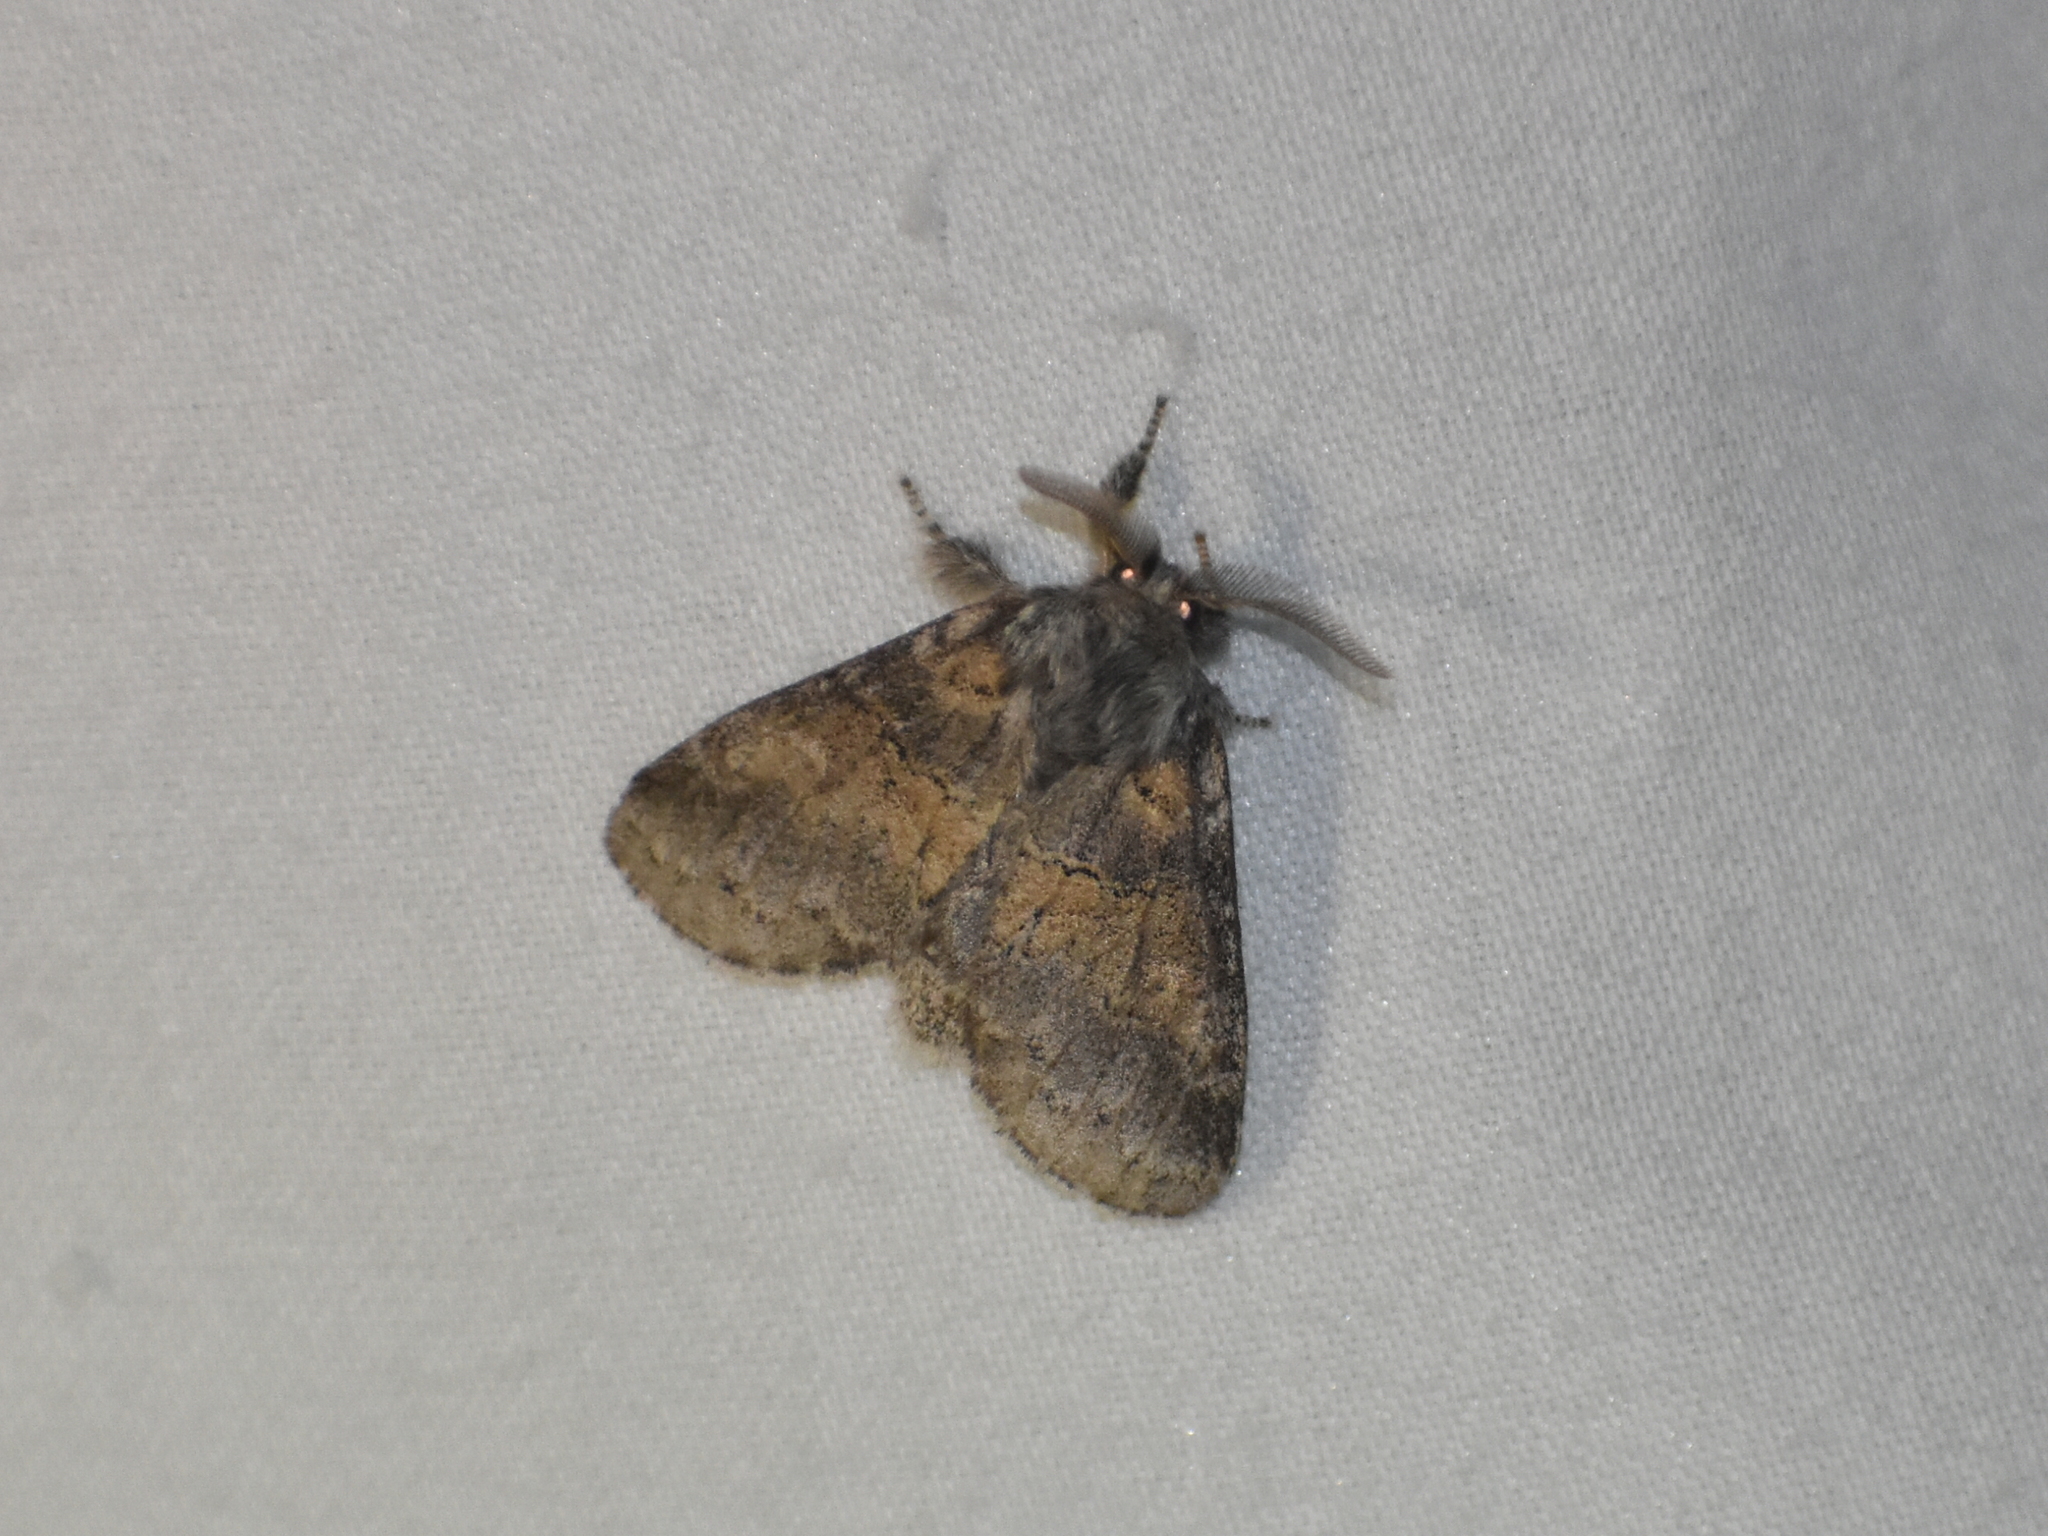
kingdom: Animalia
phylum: Arthropoda
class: Insecta
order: Lepidoptera
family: Notodontidae
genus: Gluphisia
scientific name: Gluphisia septentrionis
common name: Common gluphisia
